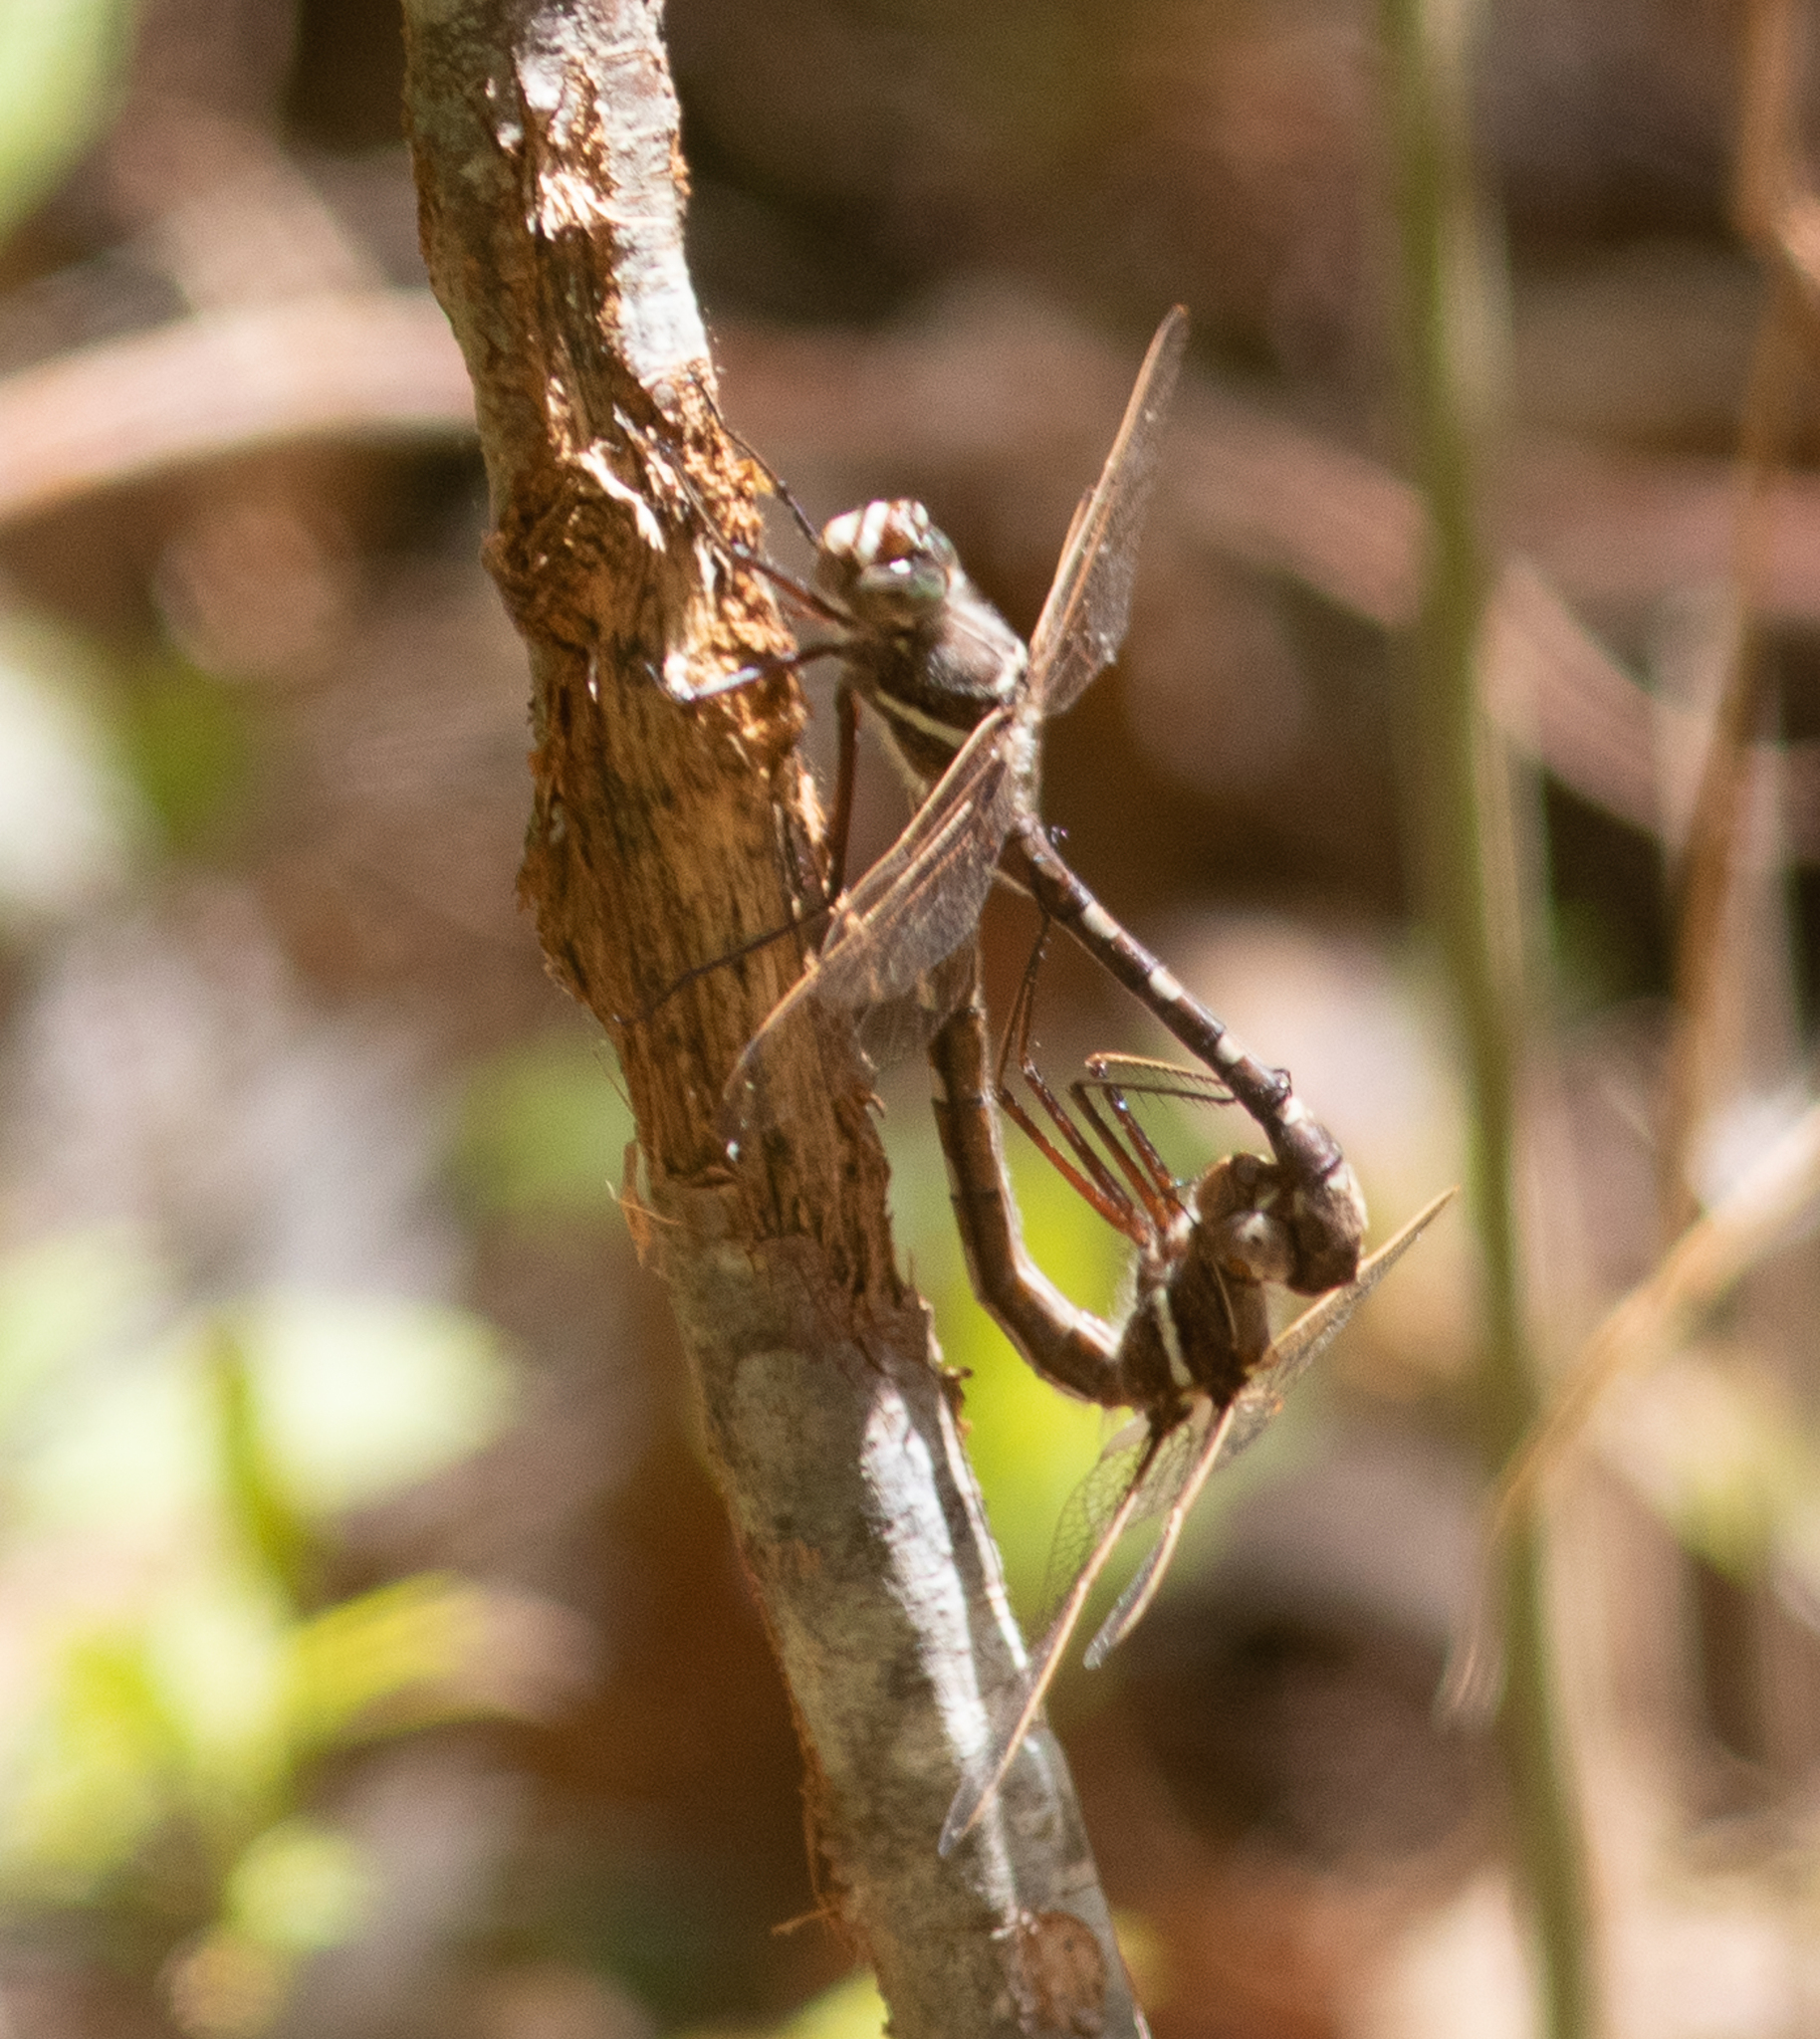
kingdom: Animalia
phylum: Arthropoda
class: Insecta
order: Odonata
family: Macromiidae
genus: Didymops
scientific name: Didymops transversa
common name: Stream cruiser
